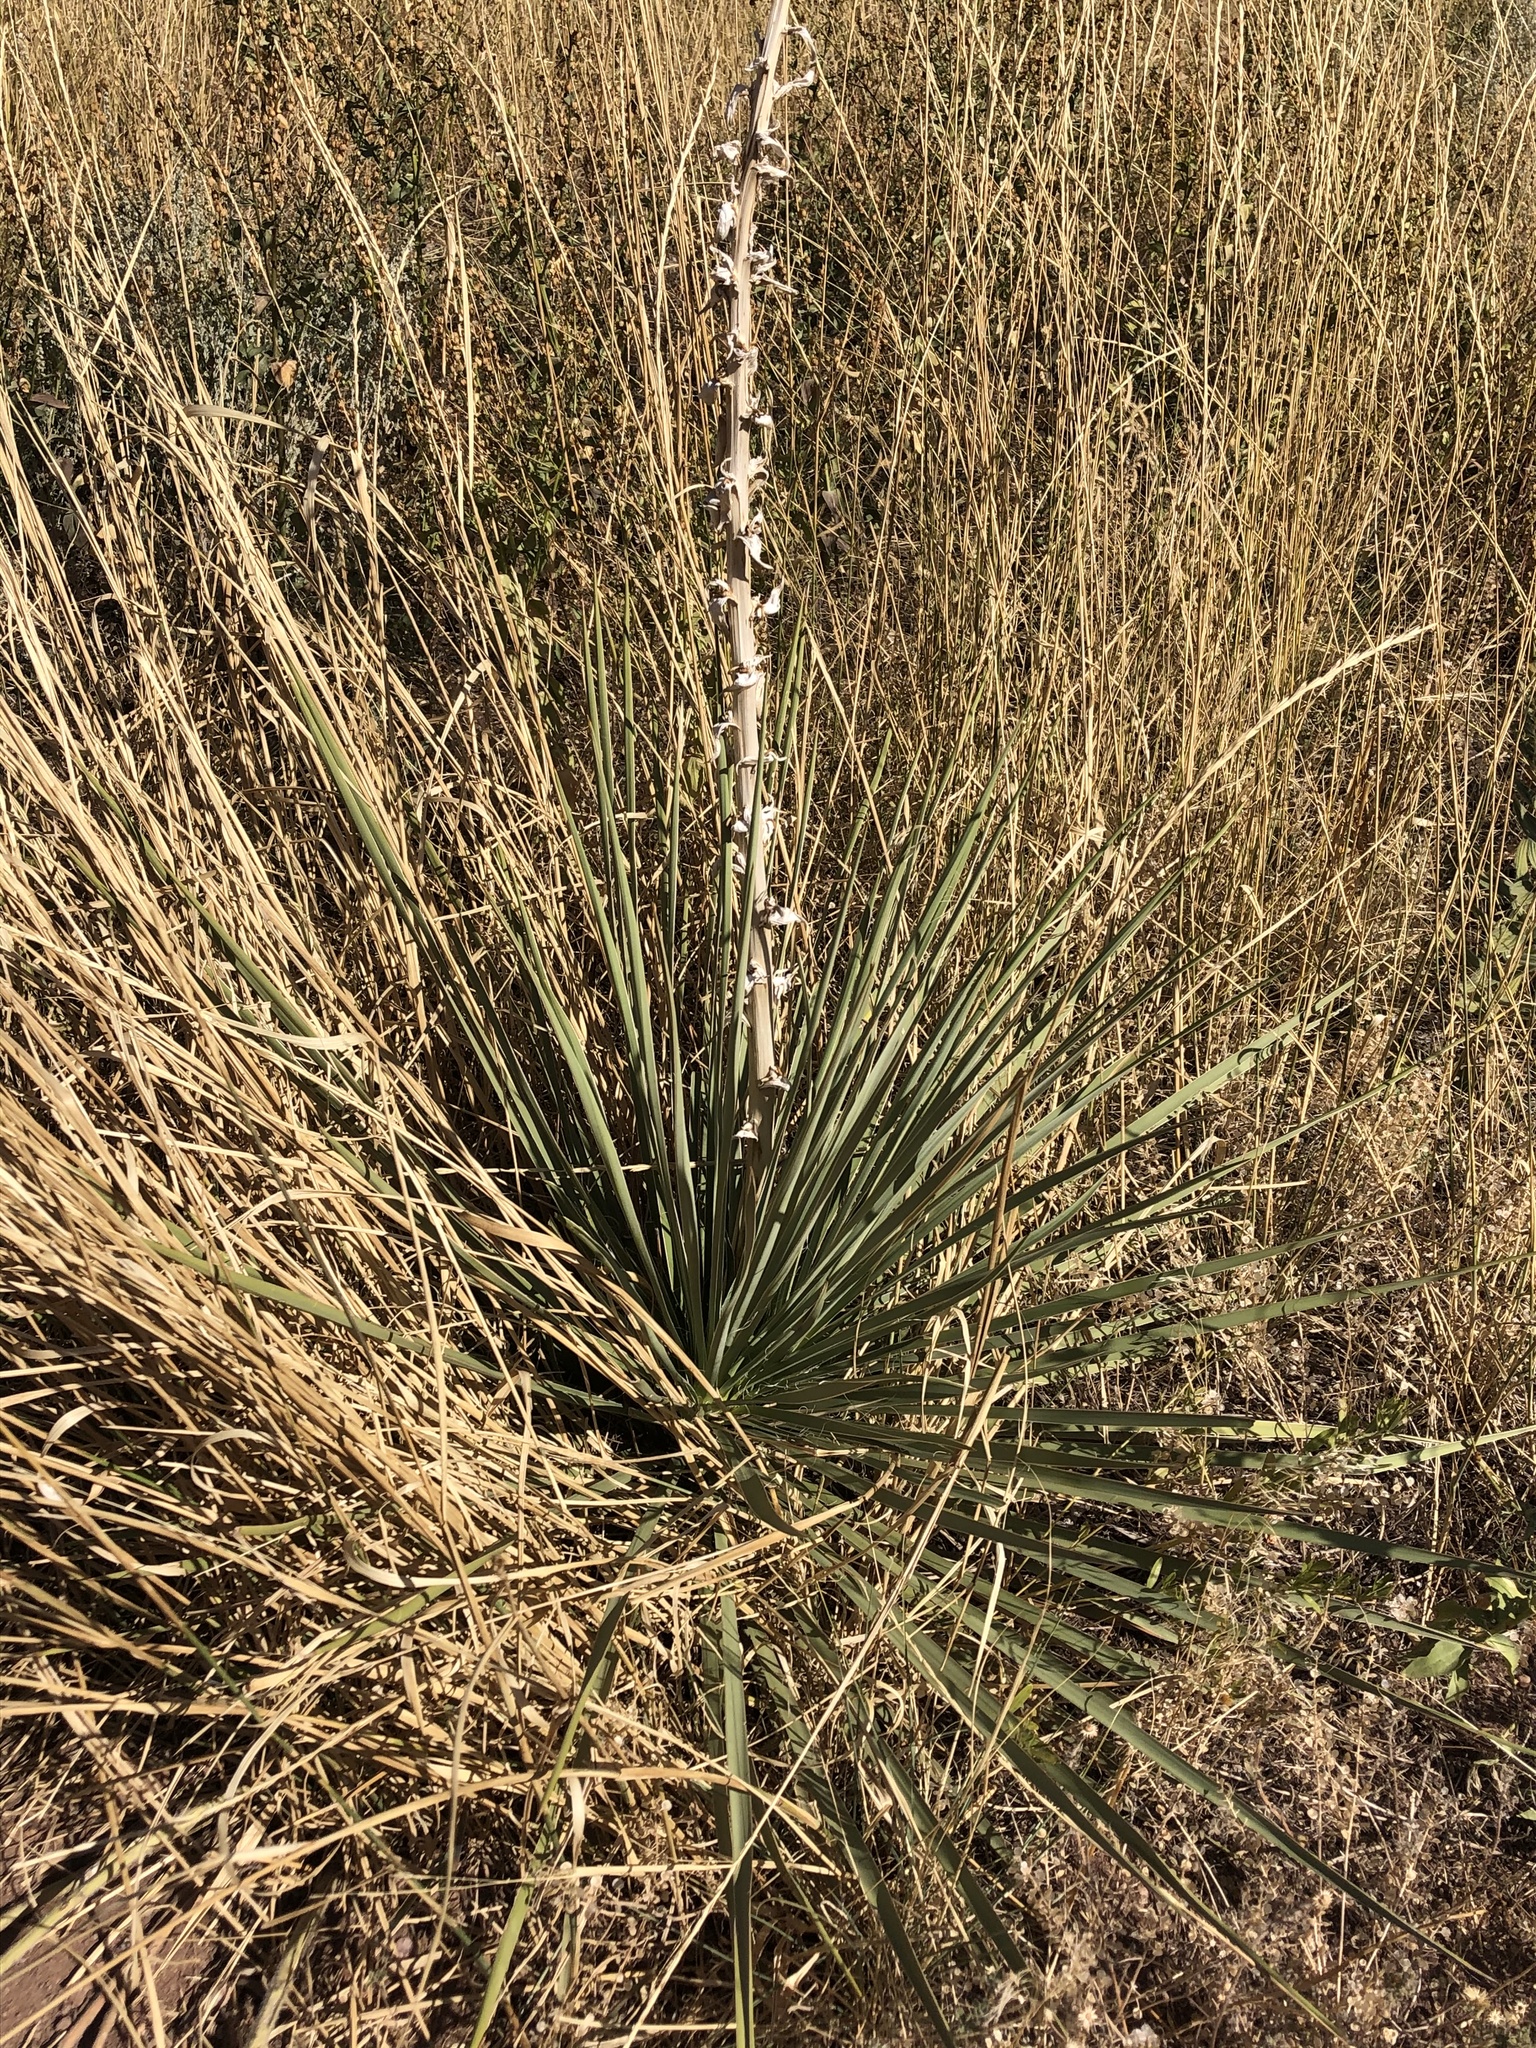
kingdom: Plantae
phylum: Tracheophyta
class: Liliopsida
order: Asparagales
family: Asparagaceae
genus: Yucca
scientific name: Yucca glauca
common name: Great plains yucca
